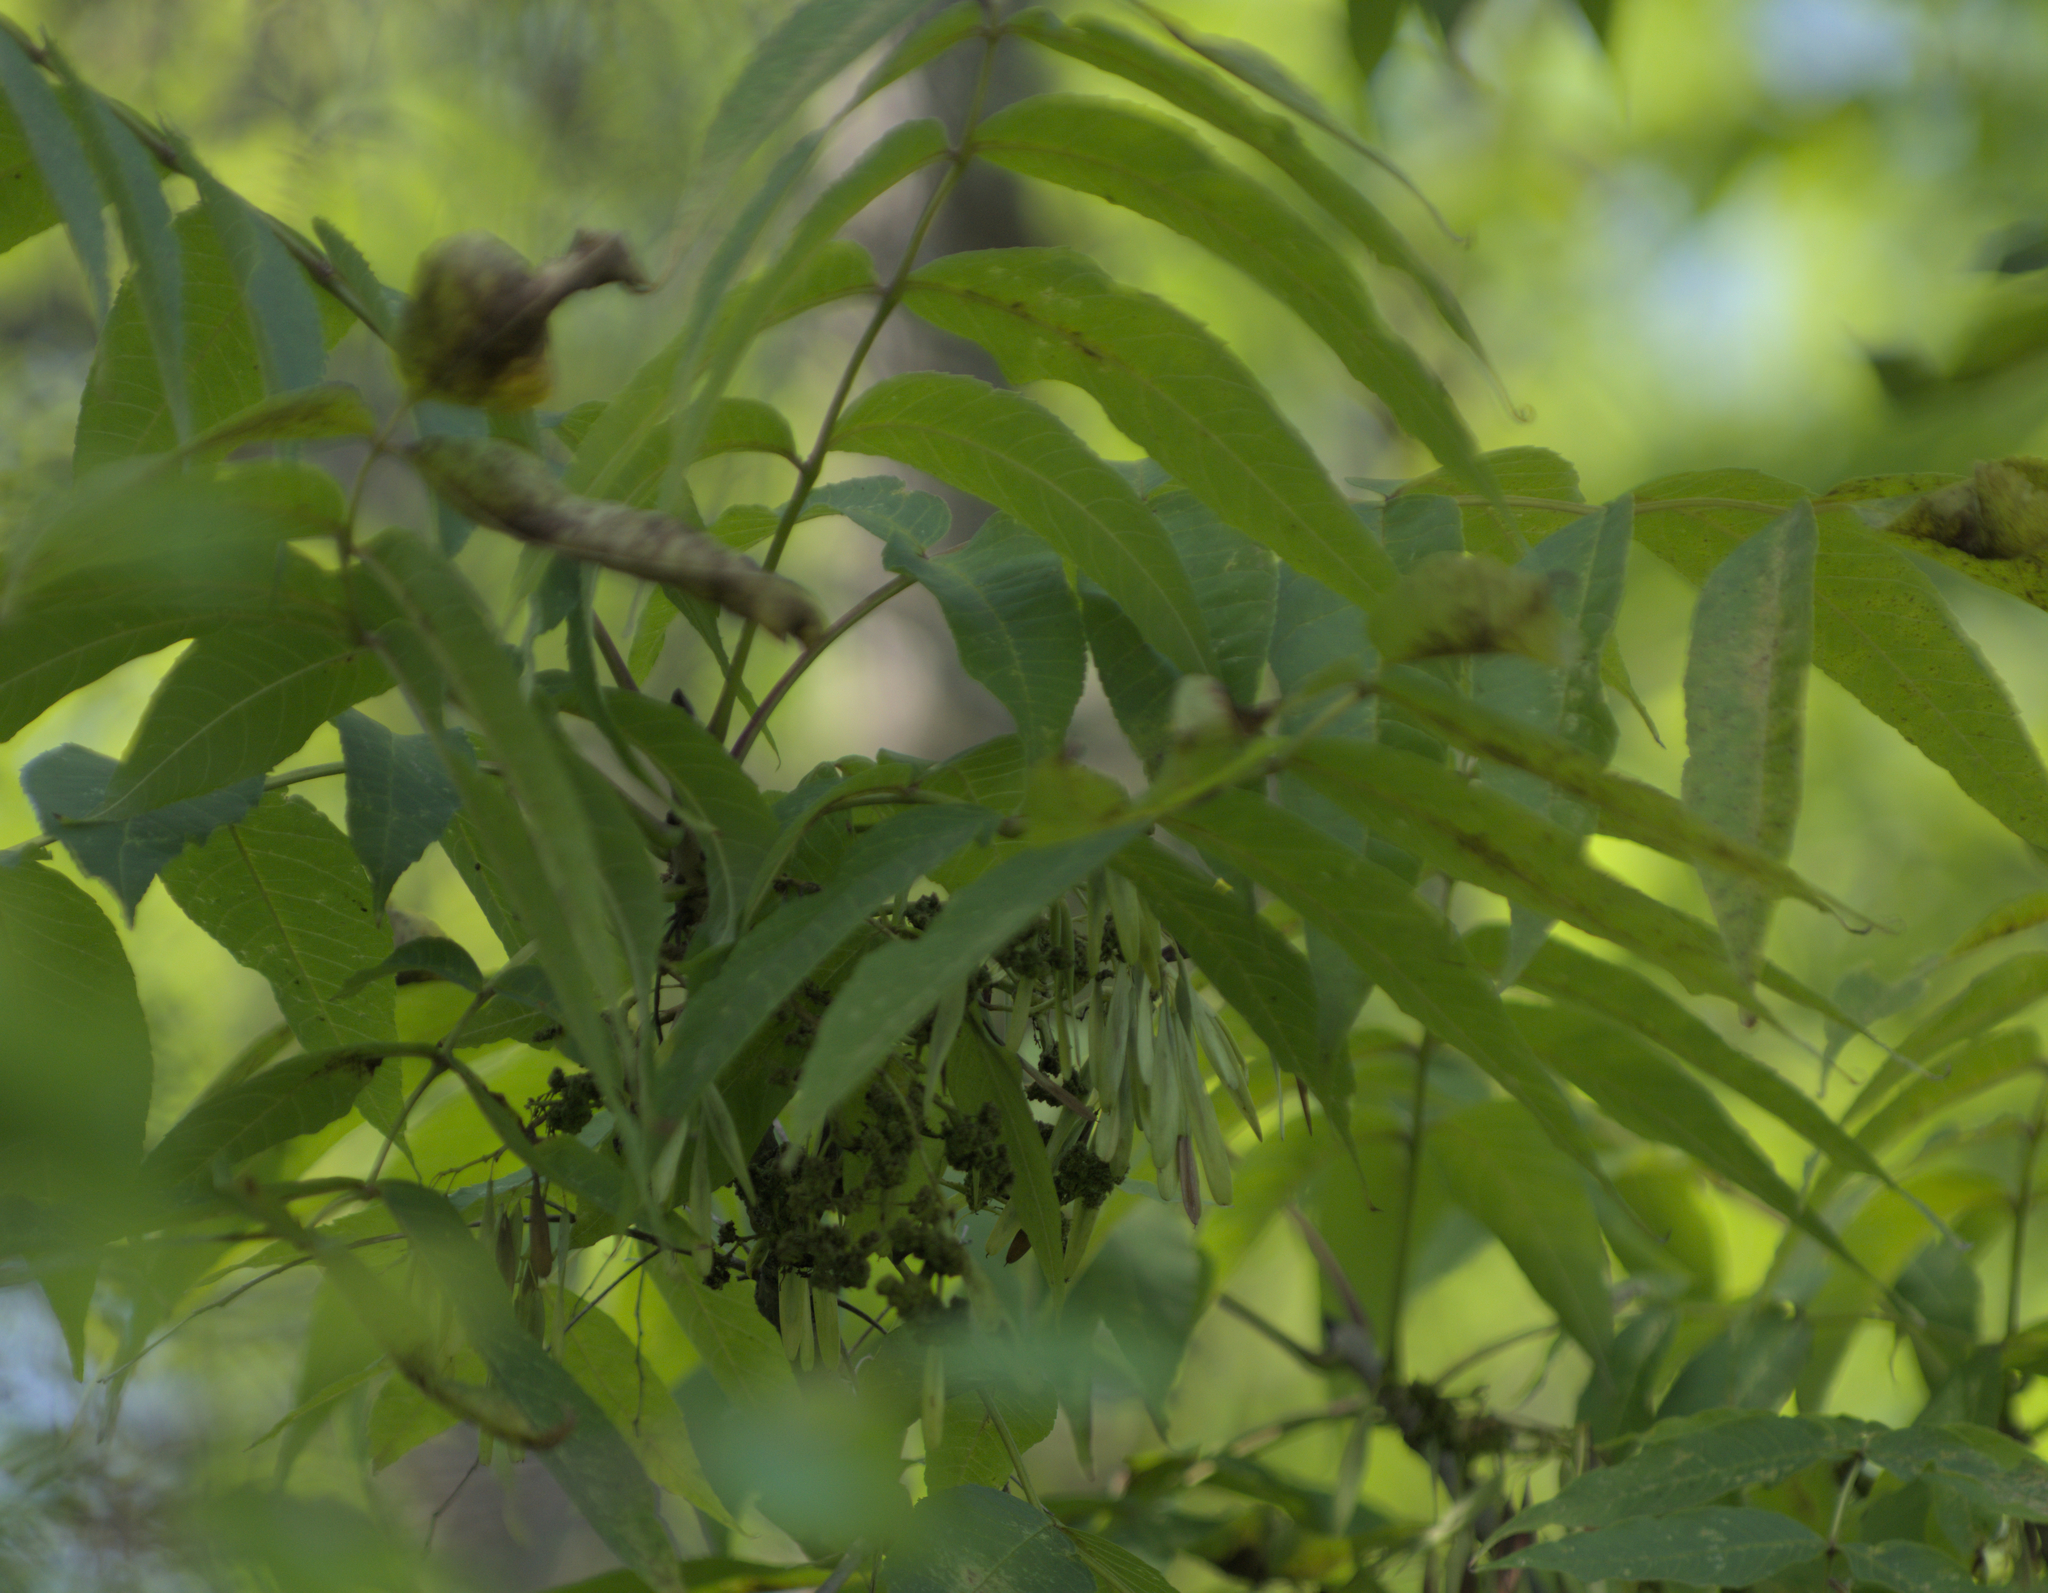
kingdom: Plantae
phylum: Tracheophyta
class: Magnoliopsida
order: Lamiales
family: Oleaceae
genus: Fraxinus
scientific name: Fraxinus nigra
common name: Black ash
